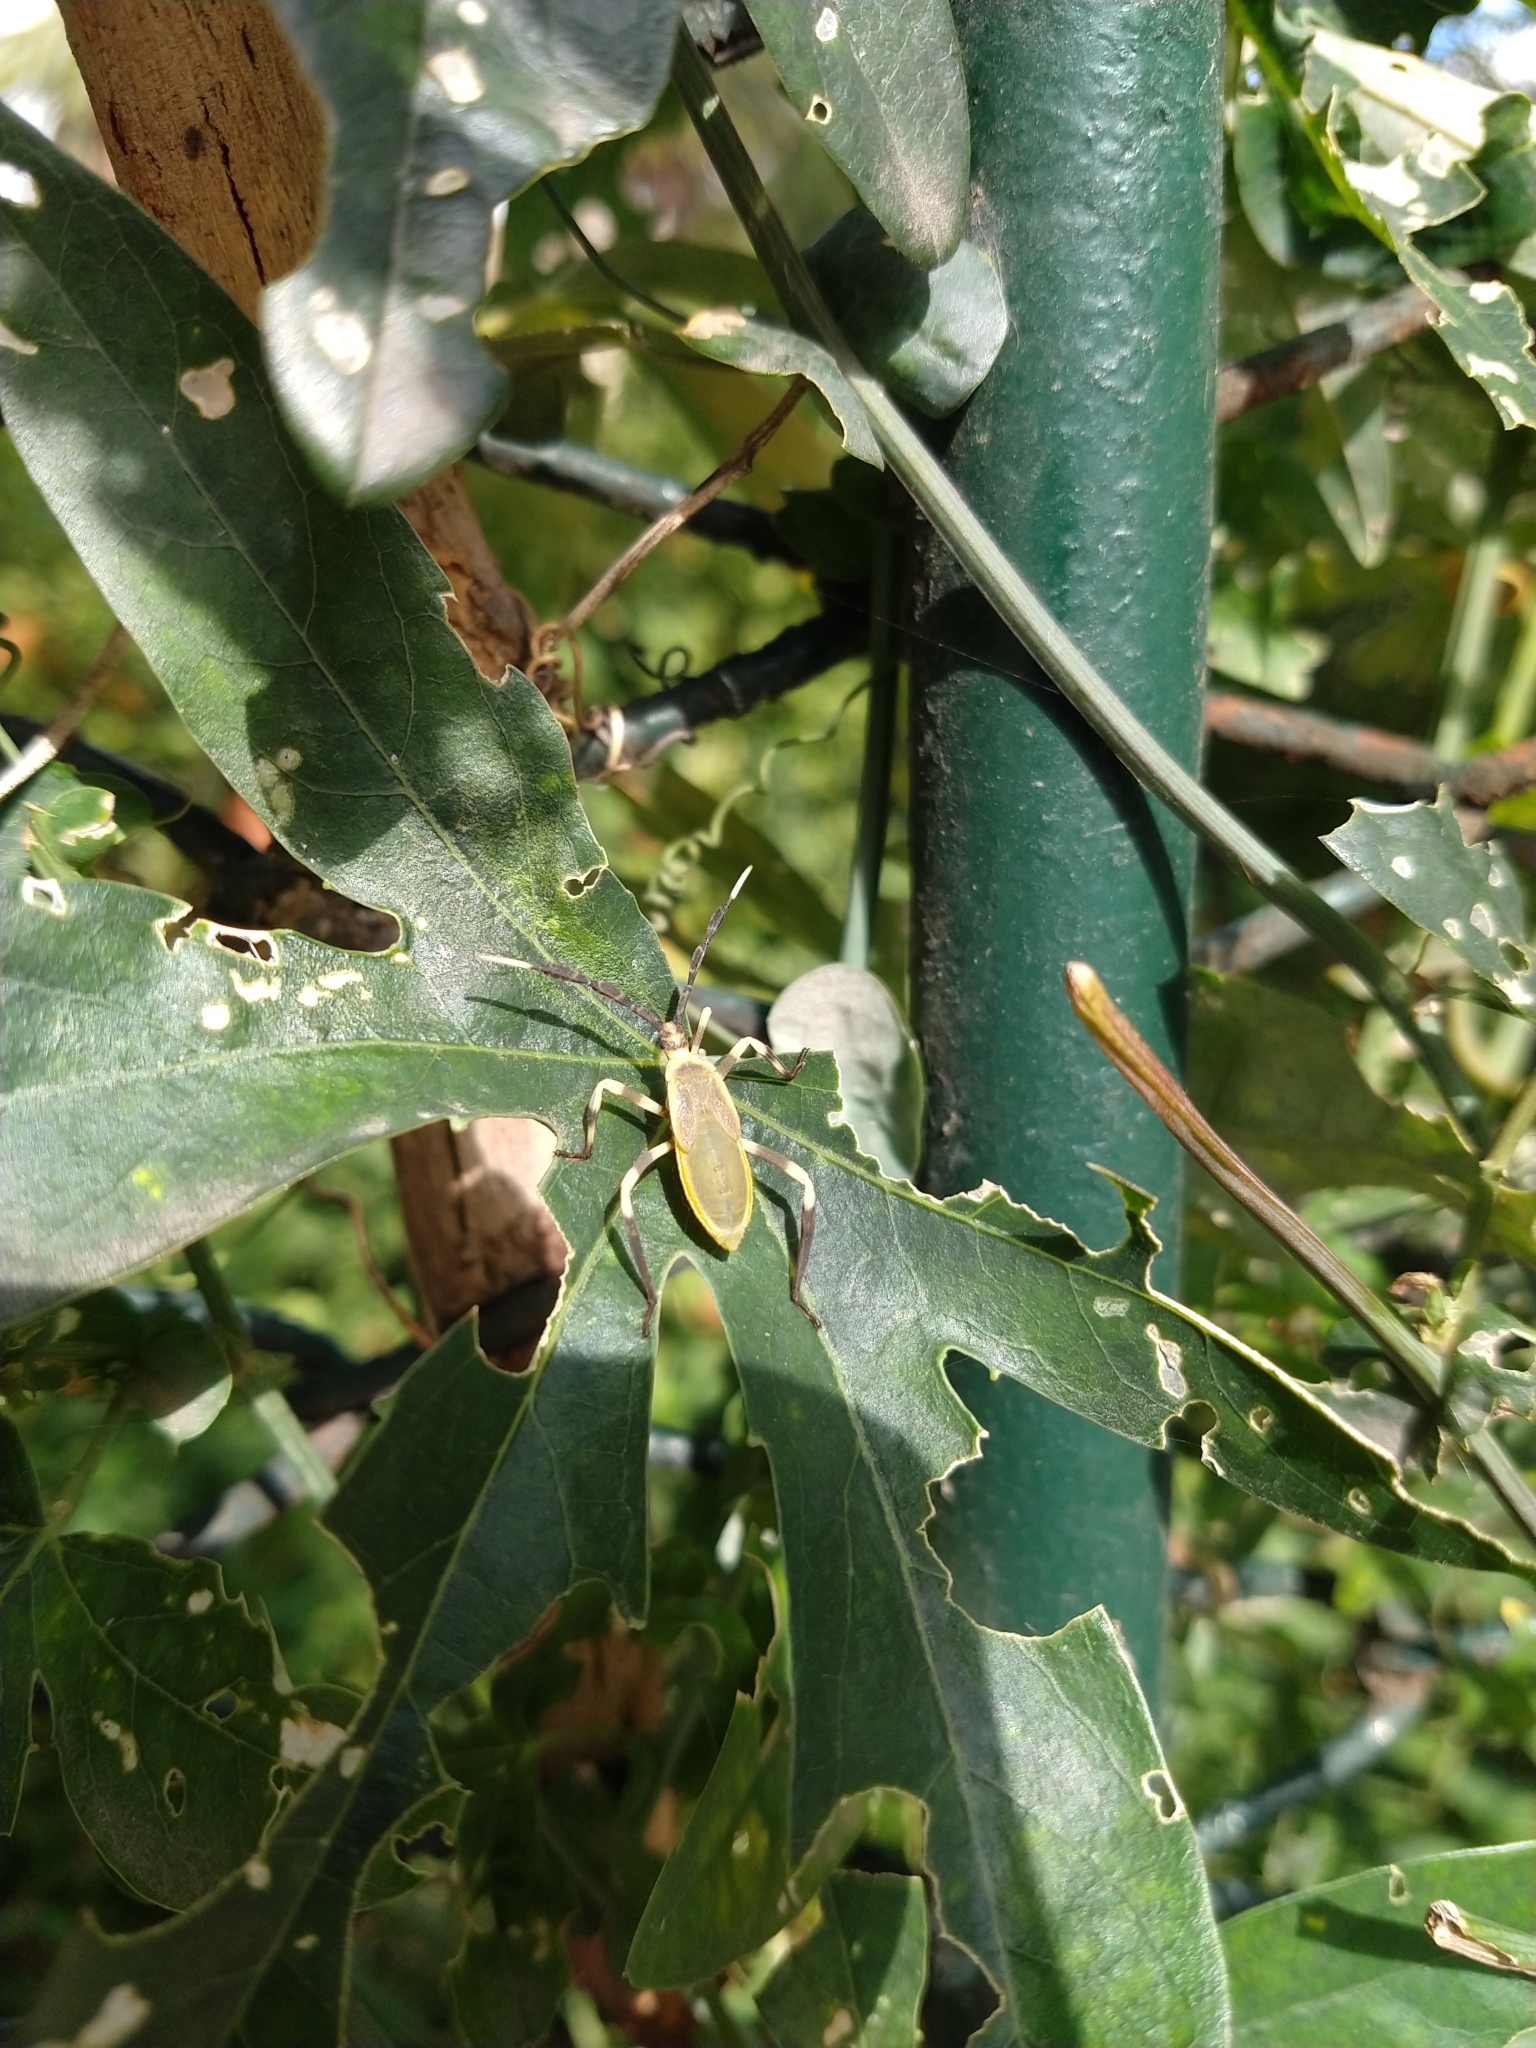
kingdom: Animalia
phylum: Arthropoda
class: Insecta
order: Hemiptera
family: Coreidae
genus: Holhymenia
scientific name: Holhymenia histrio
